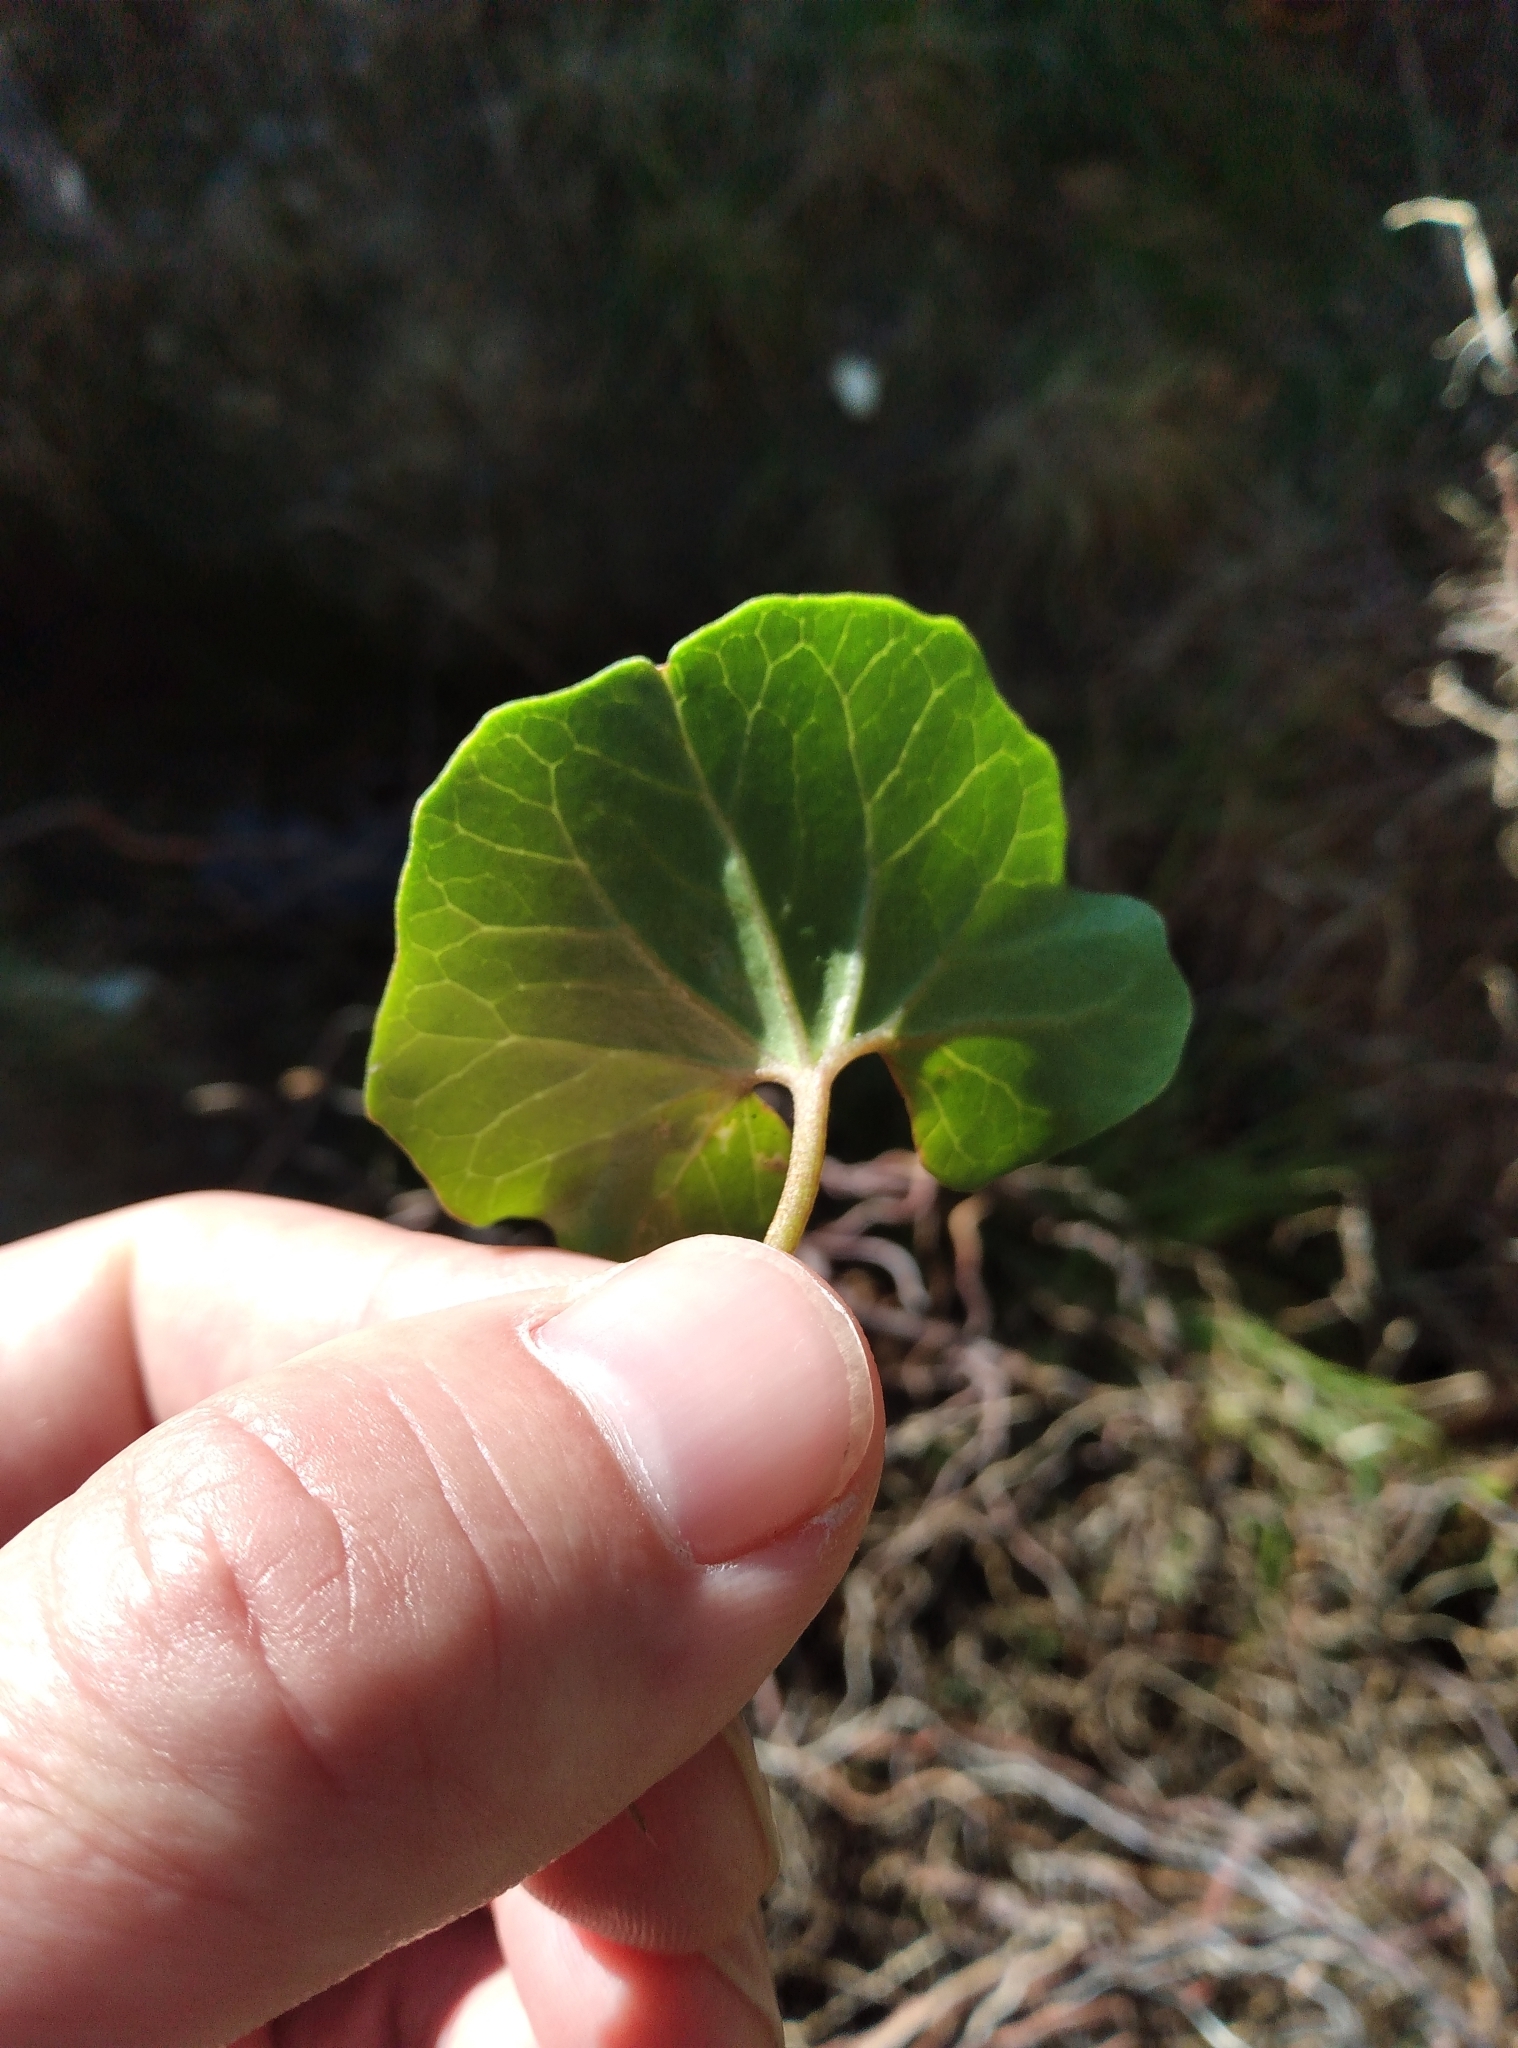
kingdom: Plantae
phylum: Tracheophyta
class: Magnoliopsida
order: Solanales
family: Convolvulaceae
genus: Calystegia
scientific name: Calystegia soldanella
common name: Sea bindweed
